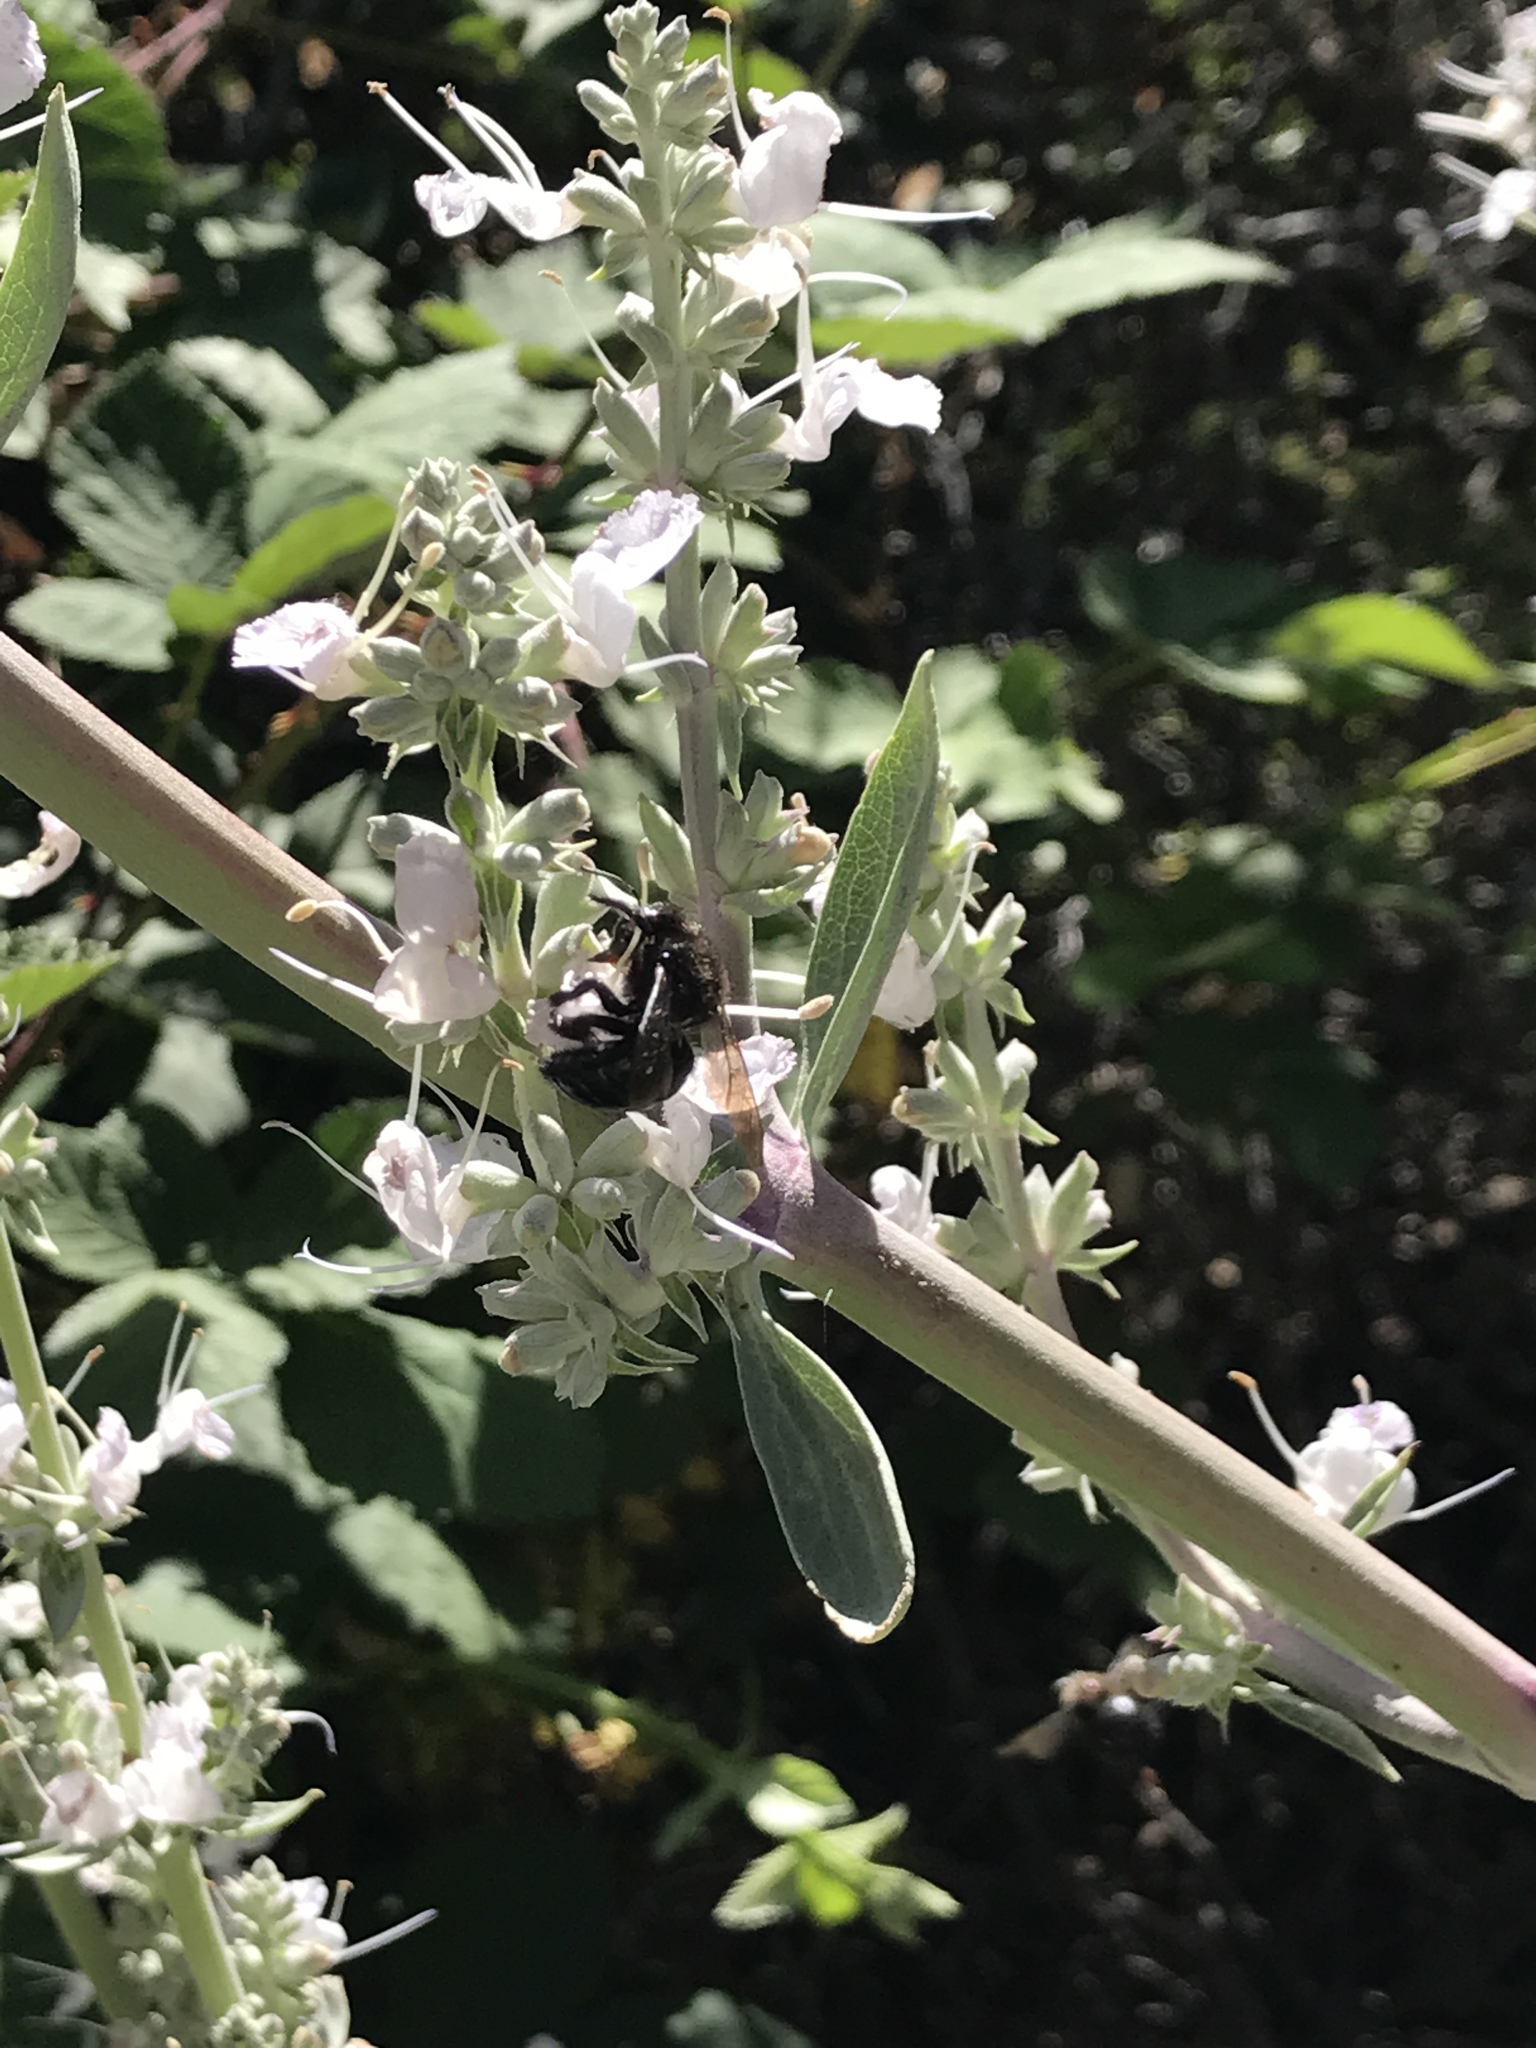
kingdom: Animalia
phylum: Arthropoda
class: Insecta
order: Hymenoptera
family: Apidae
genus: Xylocopa
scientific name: Xylocopa tabaniformis
